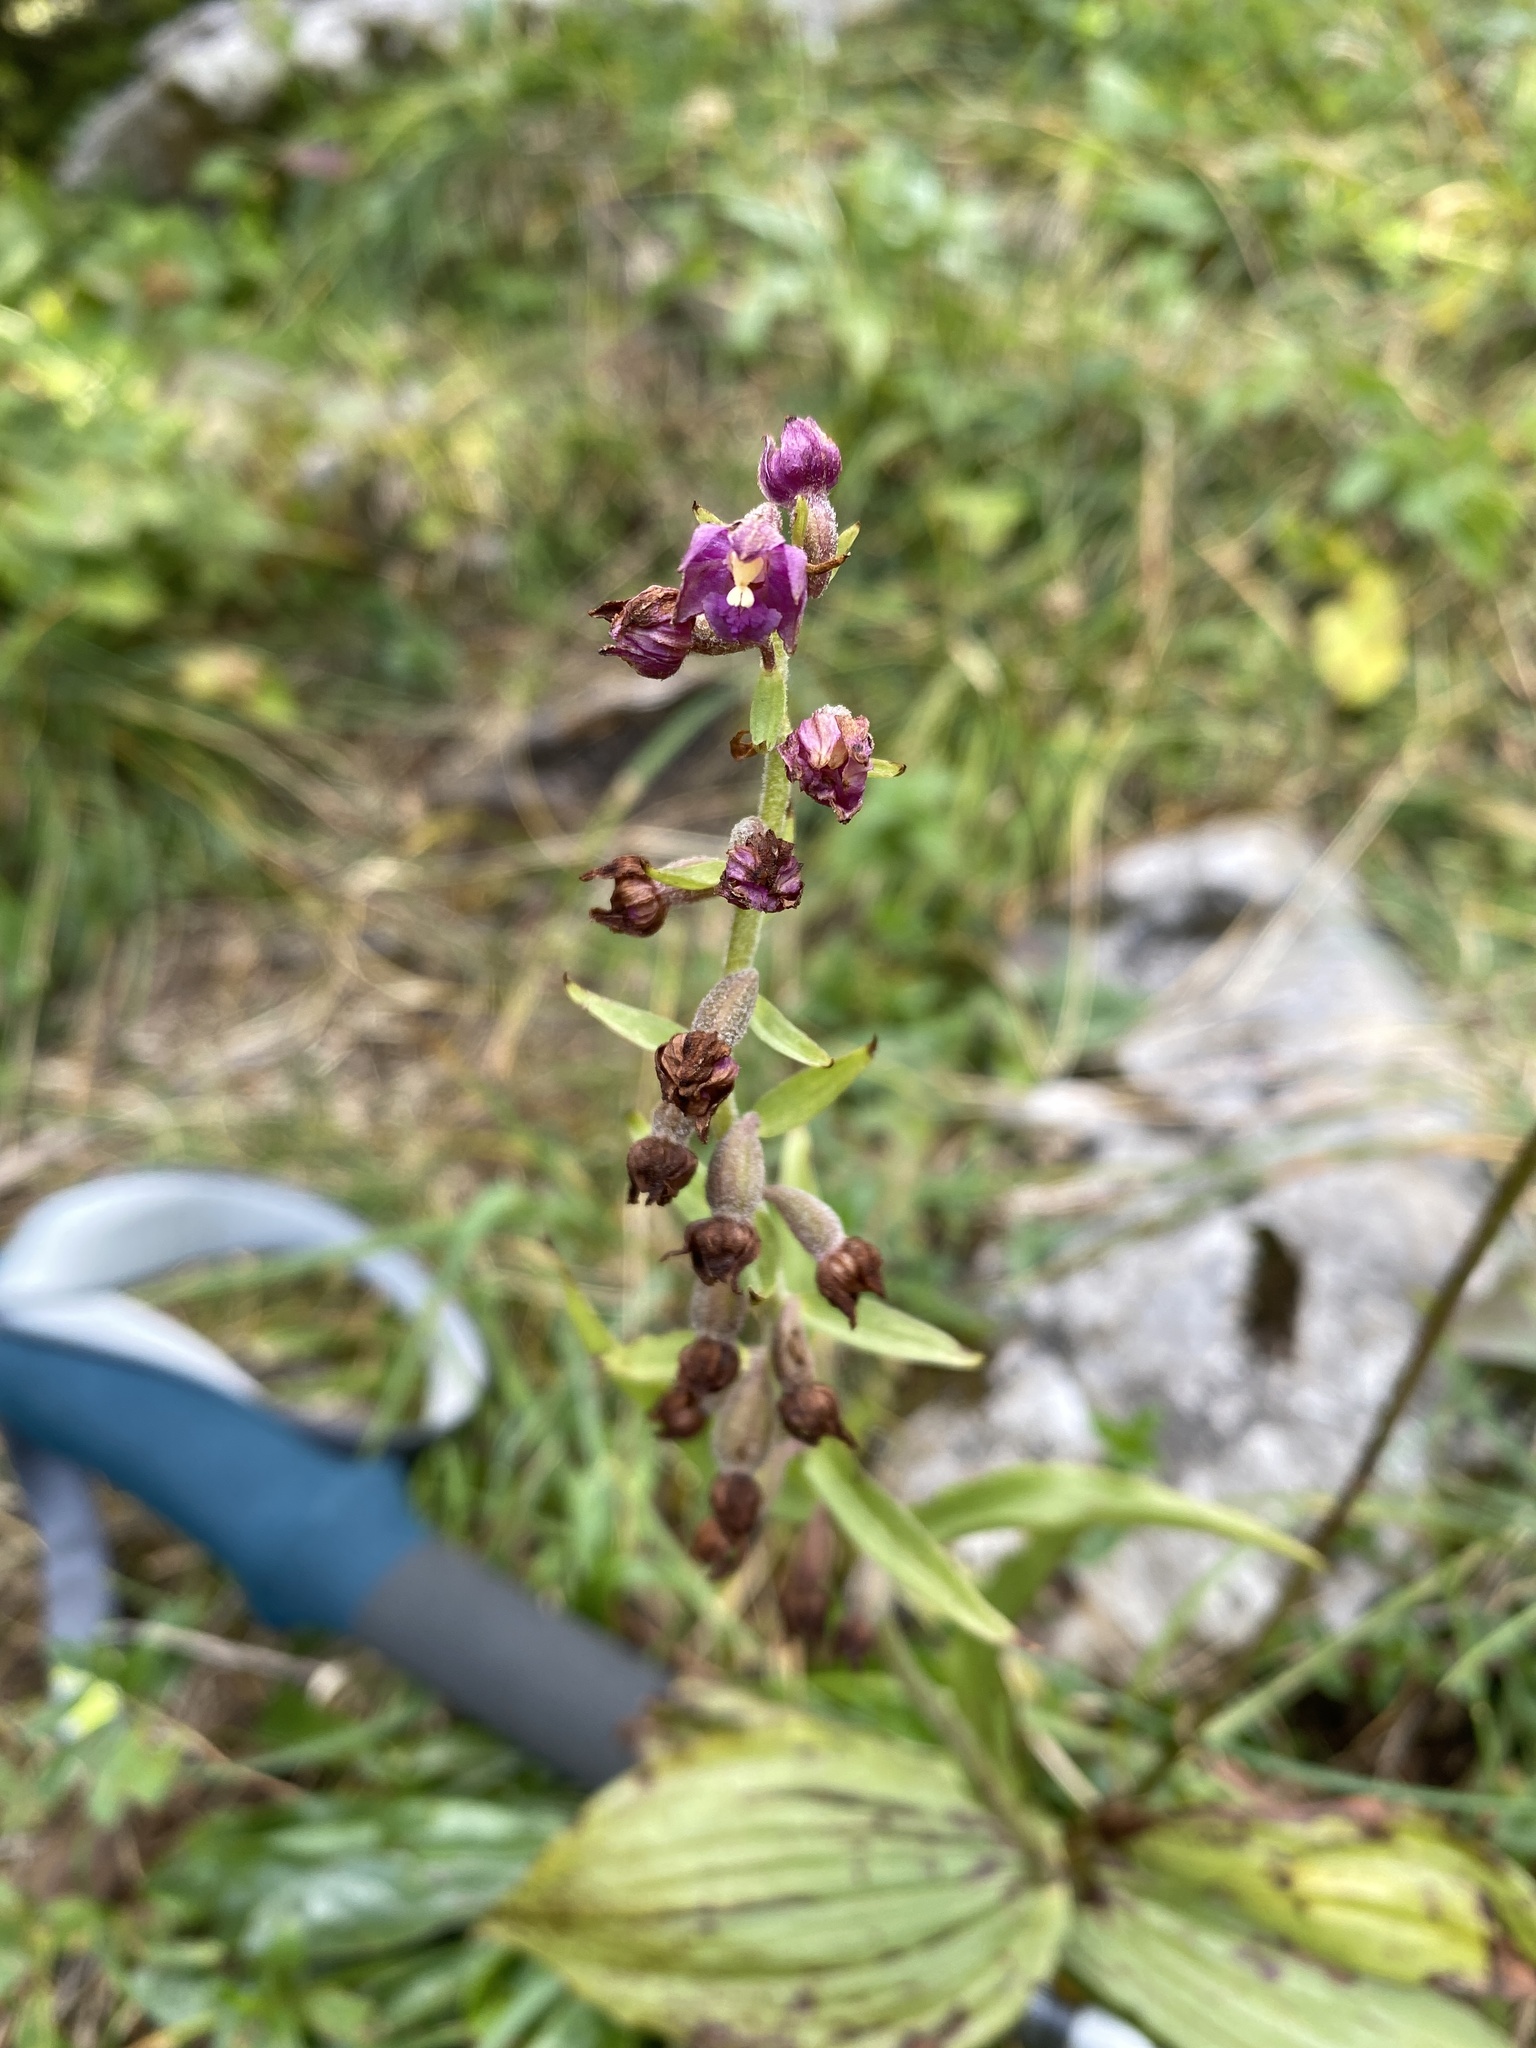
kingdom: Plantae
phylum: Tracheophyta
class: Liliopsida
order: Asparagales
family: Orchidaceae
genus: Epipactis
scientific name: Epipactis atrorubens
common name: Dark-red helleborine
